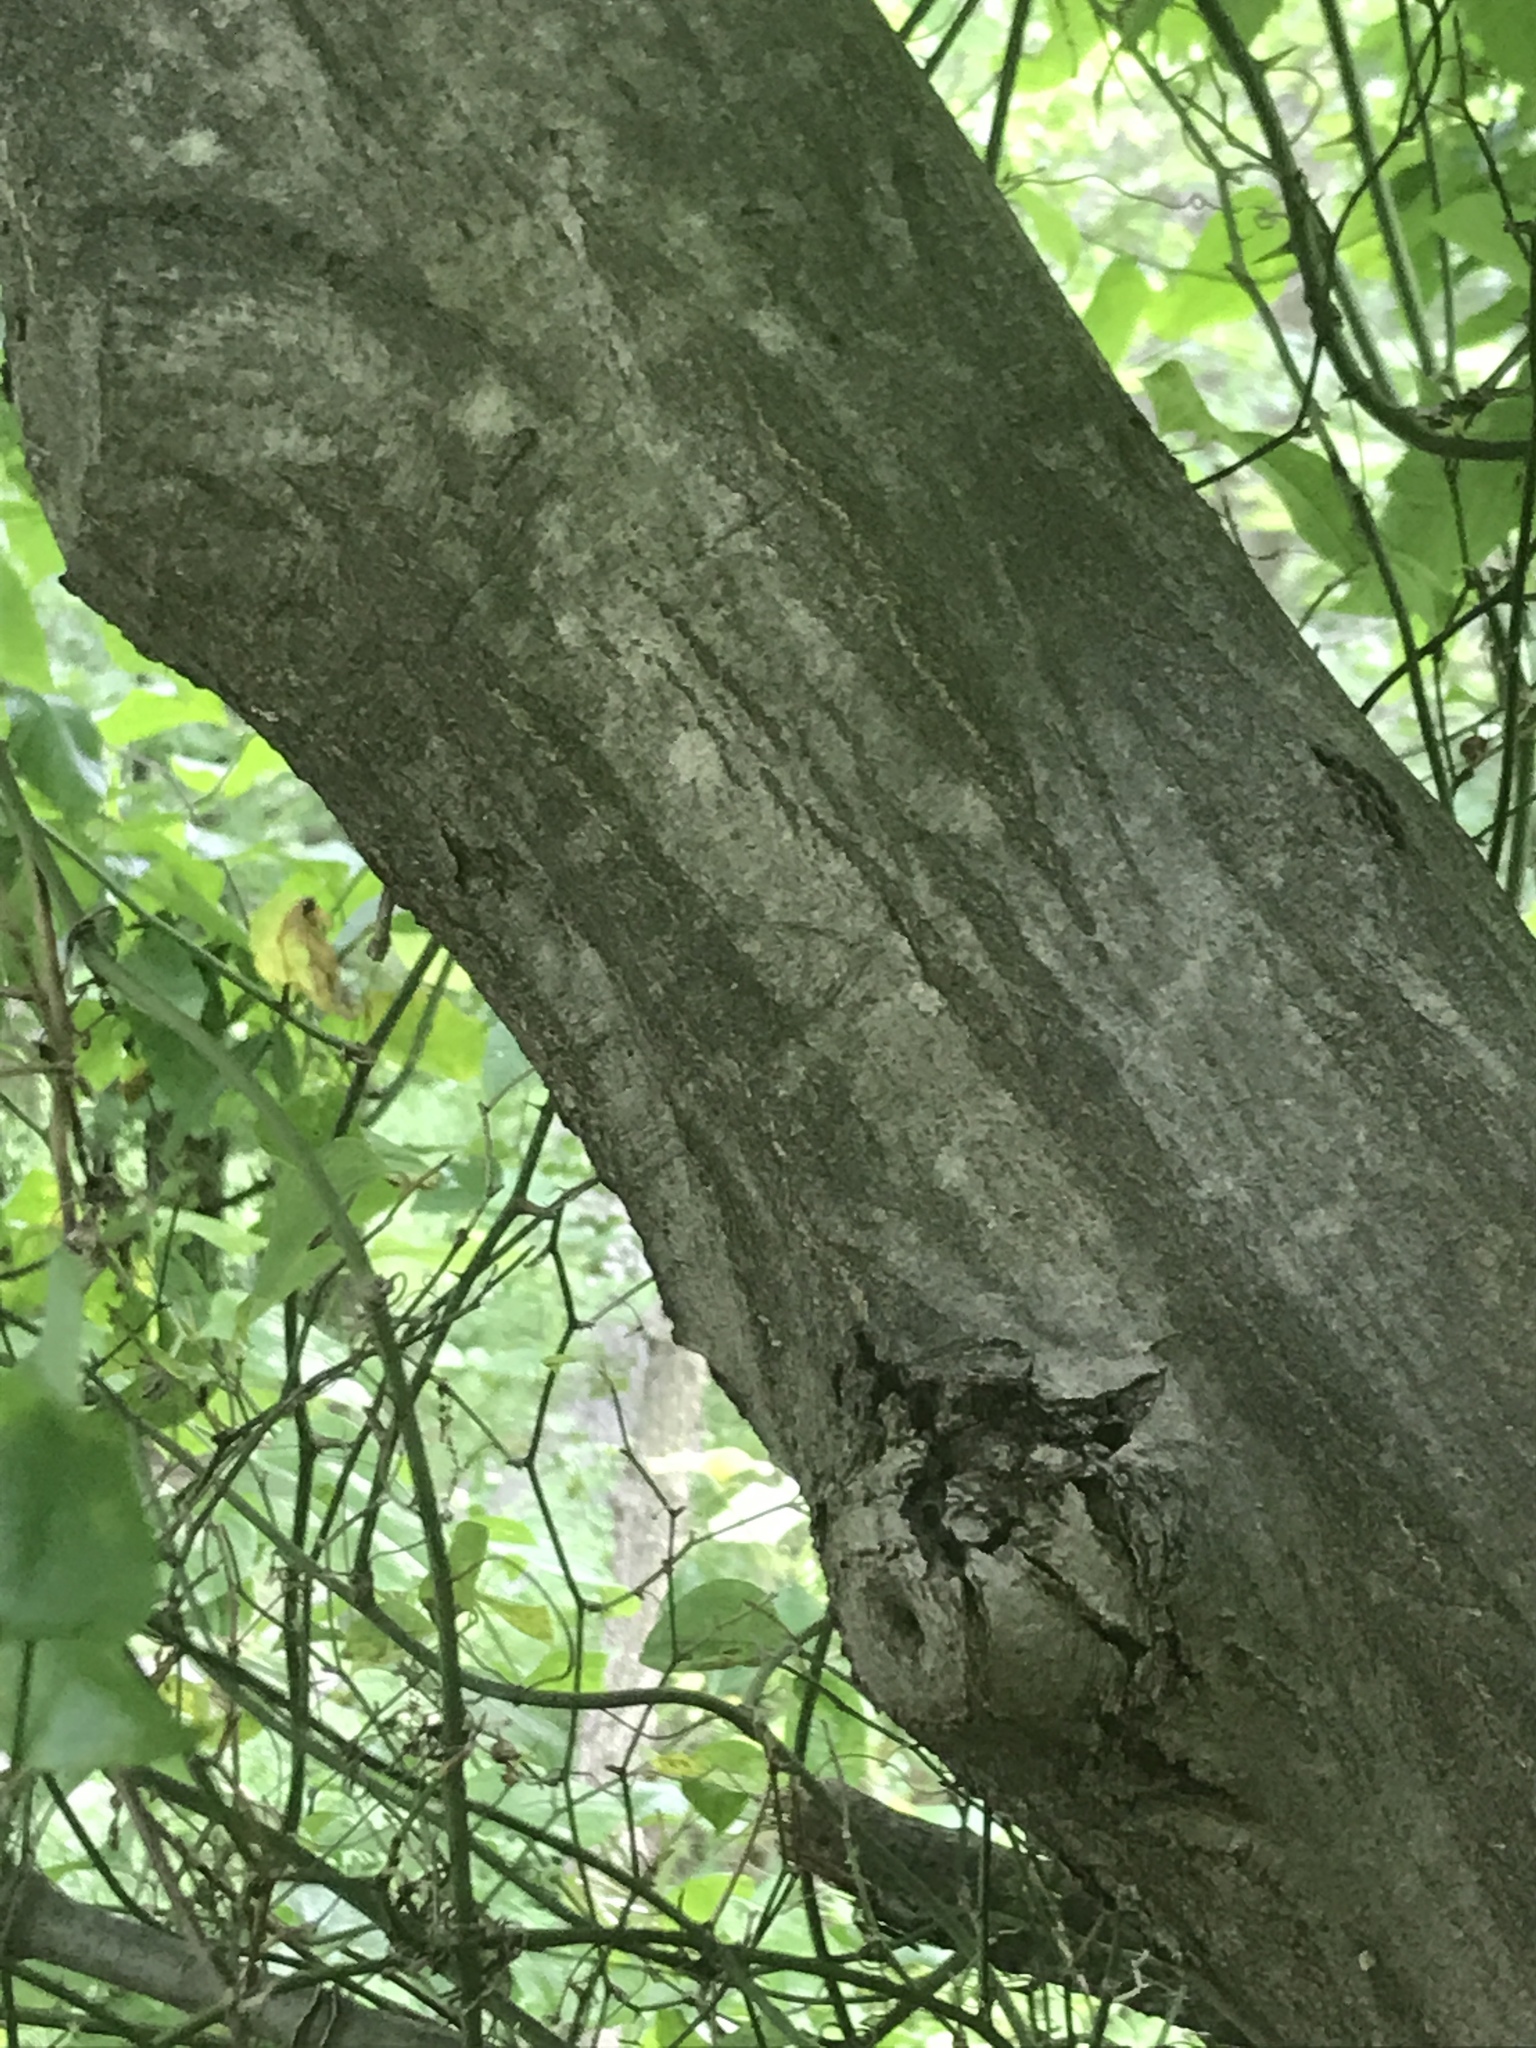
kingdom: Plantae
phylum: Tracheophyta
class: Magnoliopsida
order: Fagales
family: Betulaceae
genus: Carpinus
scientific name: Carpinus caroliniana
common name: American hornbeam
